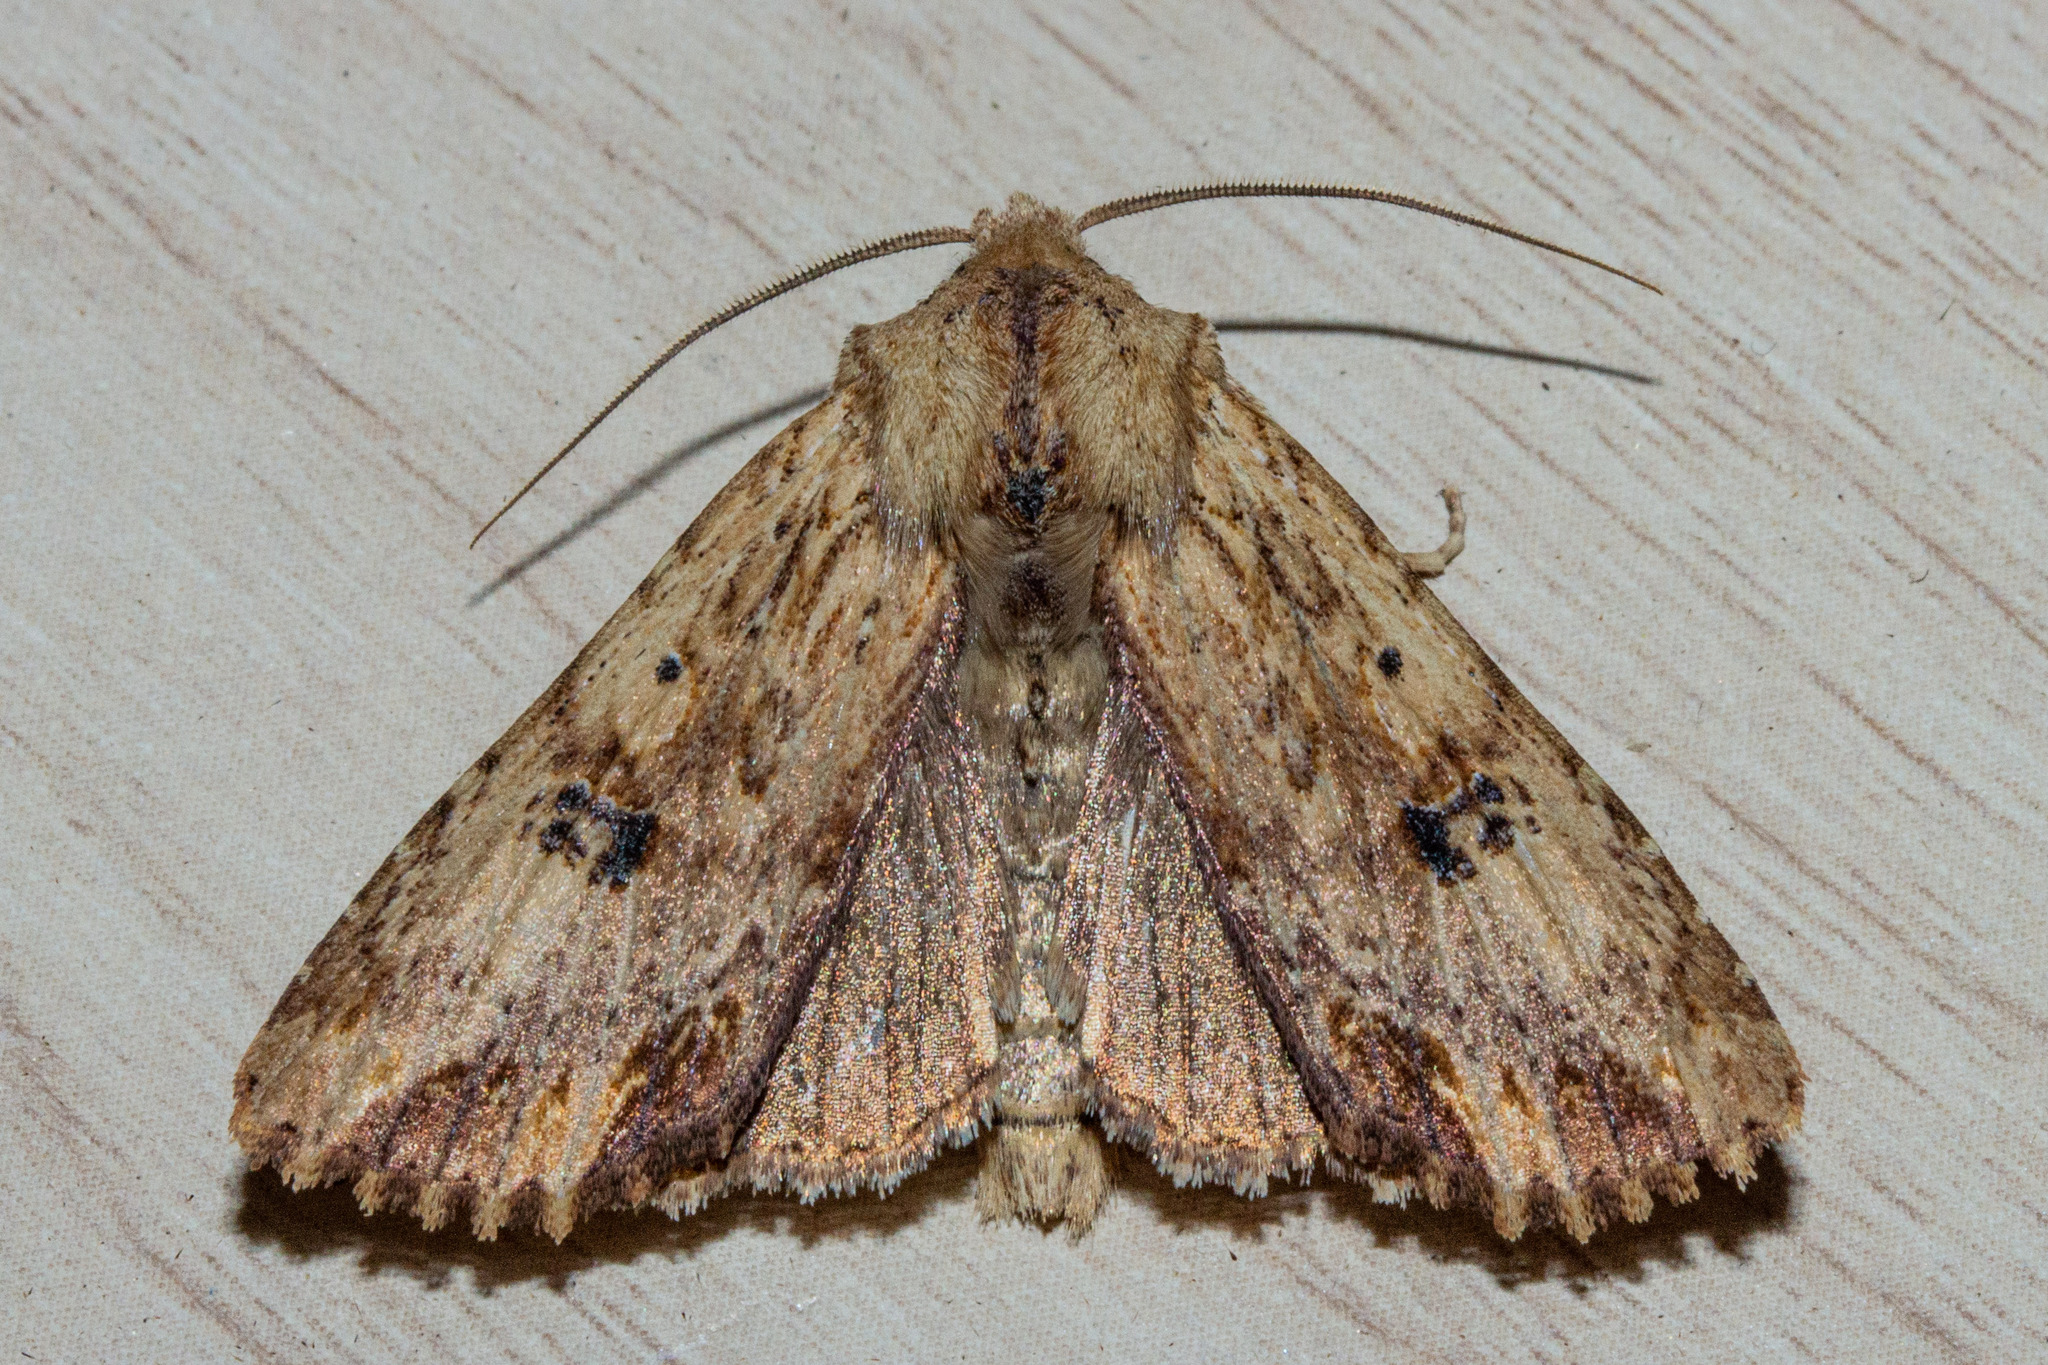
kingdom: Animalia
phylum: Arthropoda
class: Insecta
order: Lepidoptera
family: Noctuidae
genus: Ichneutica
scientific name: Ichneutica
